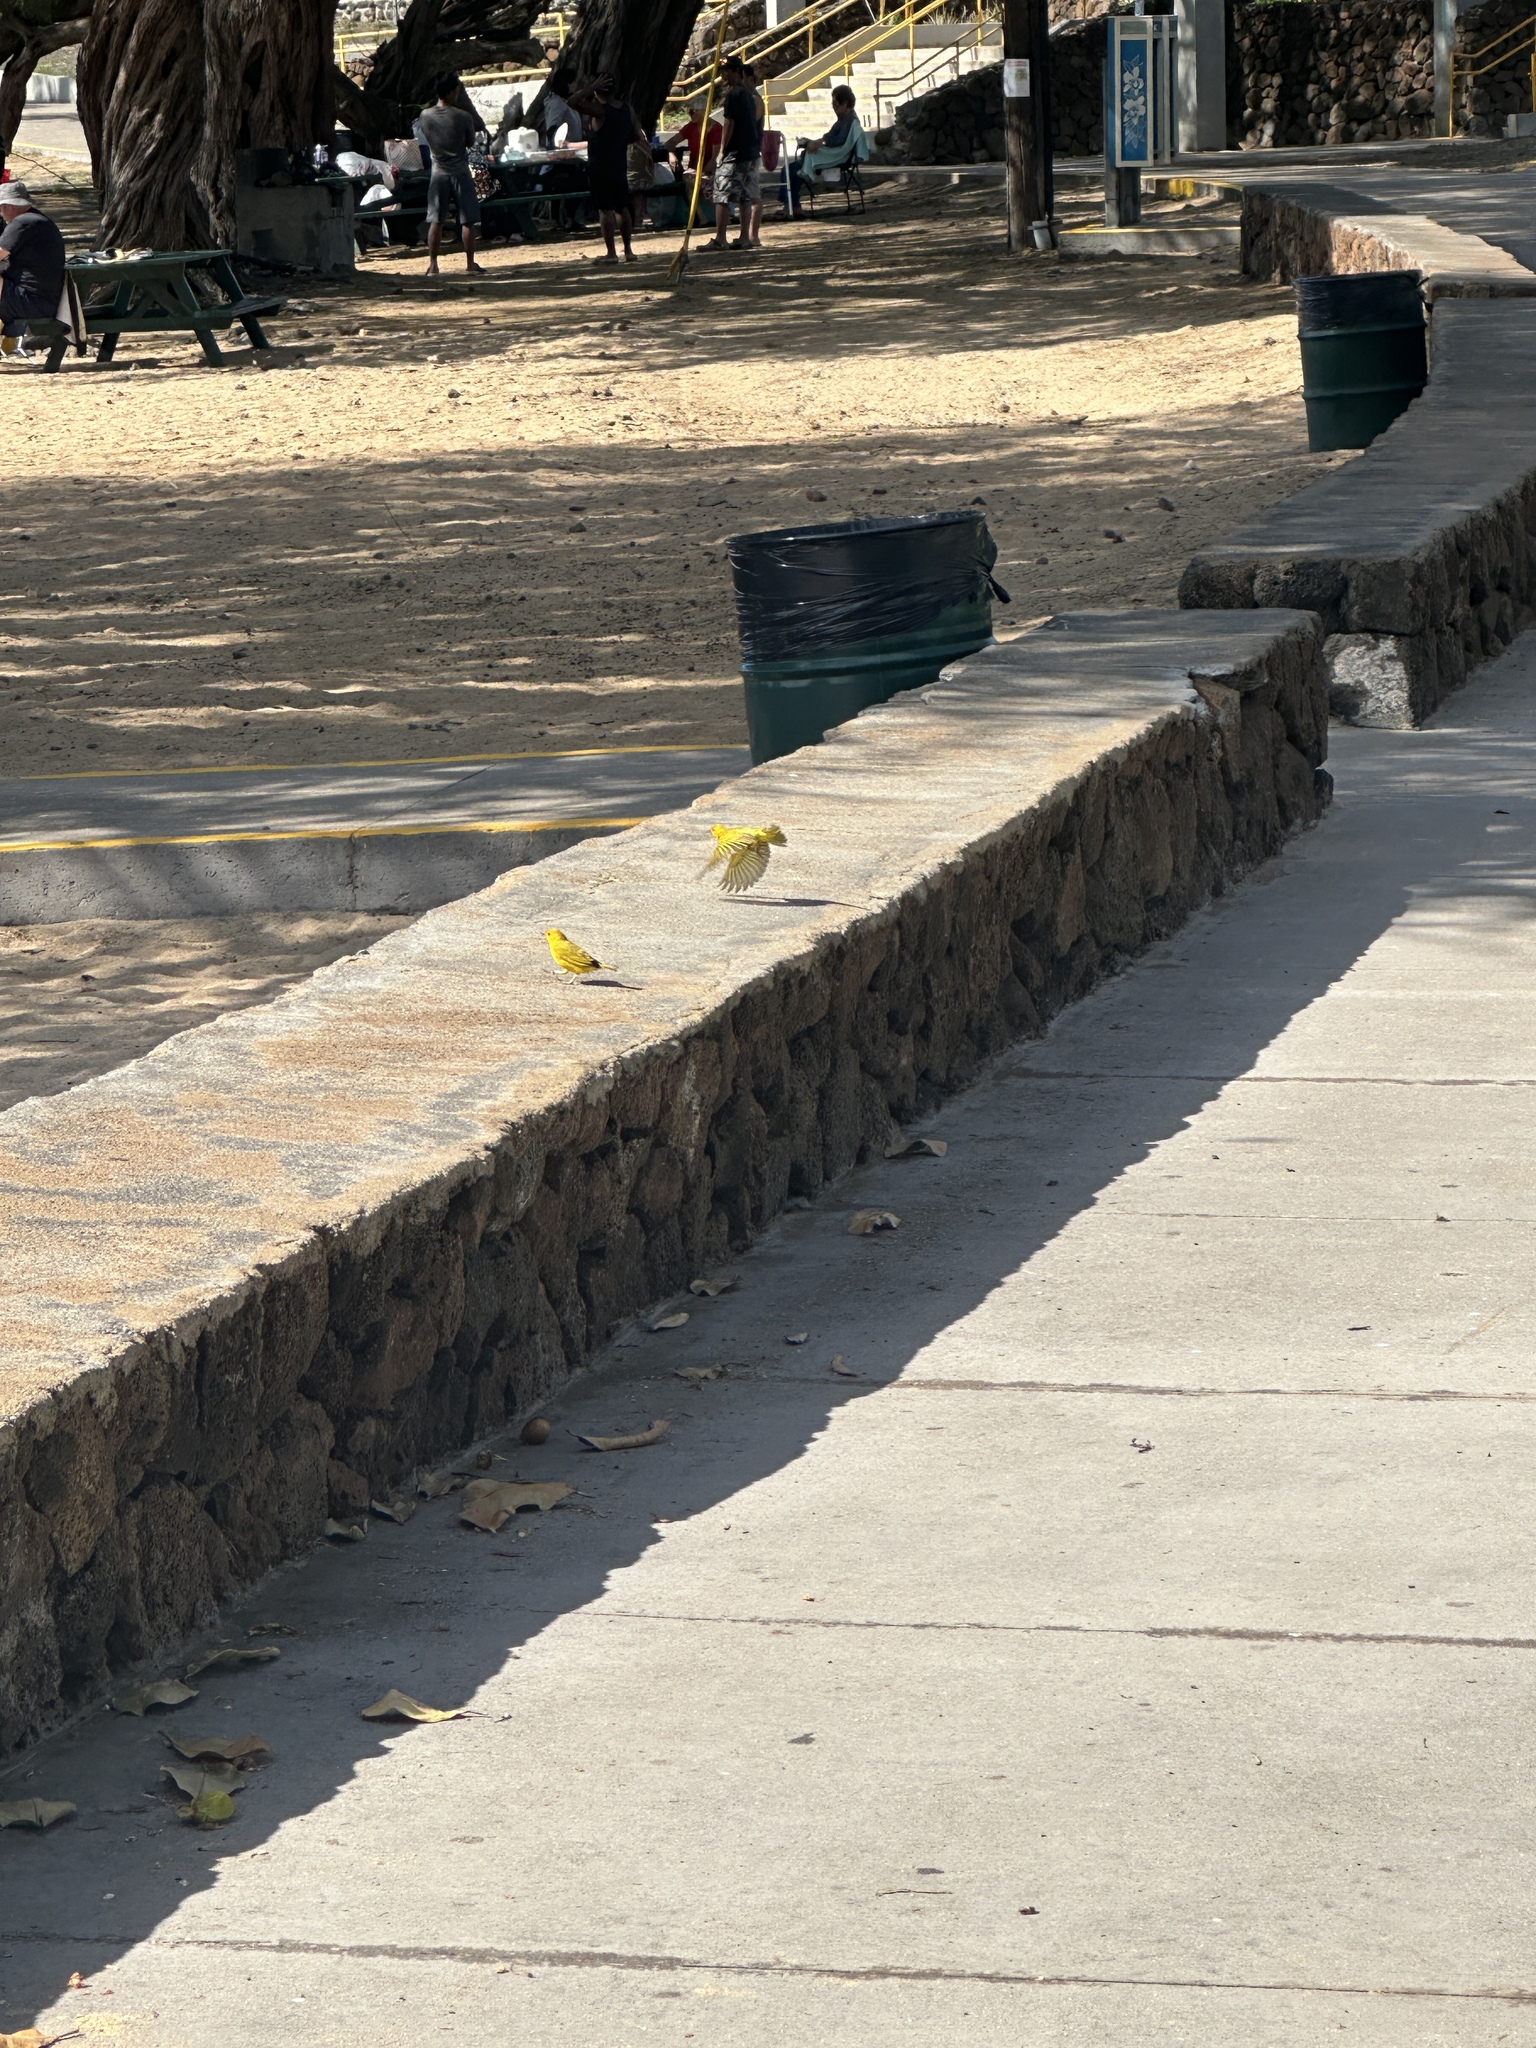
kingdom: Animalia
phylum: Chordata
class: Aves
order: Passeriformes
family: Thraupidae
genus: Sicalis
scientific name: Sicalis flaveola
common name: Saffron finch
